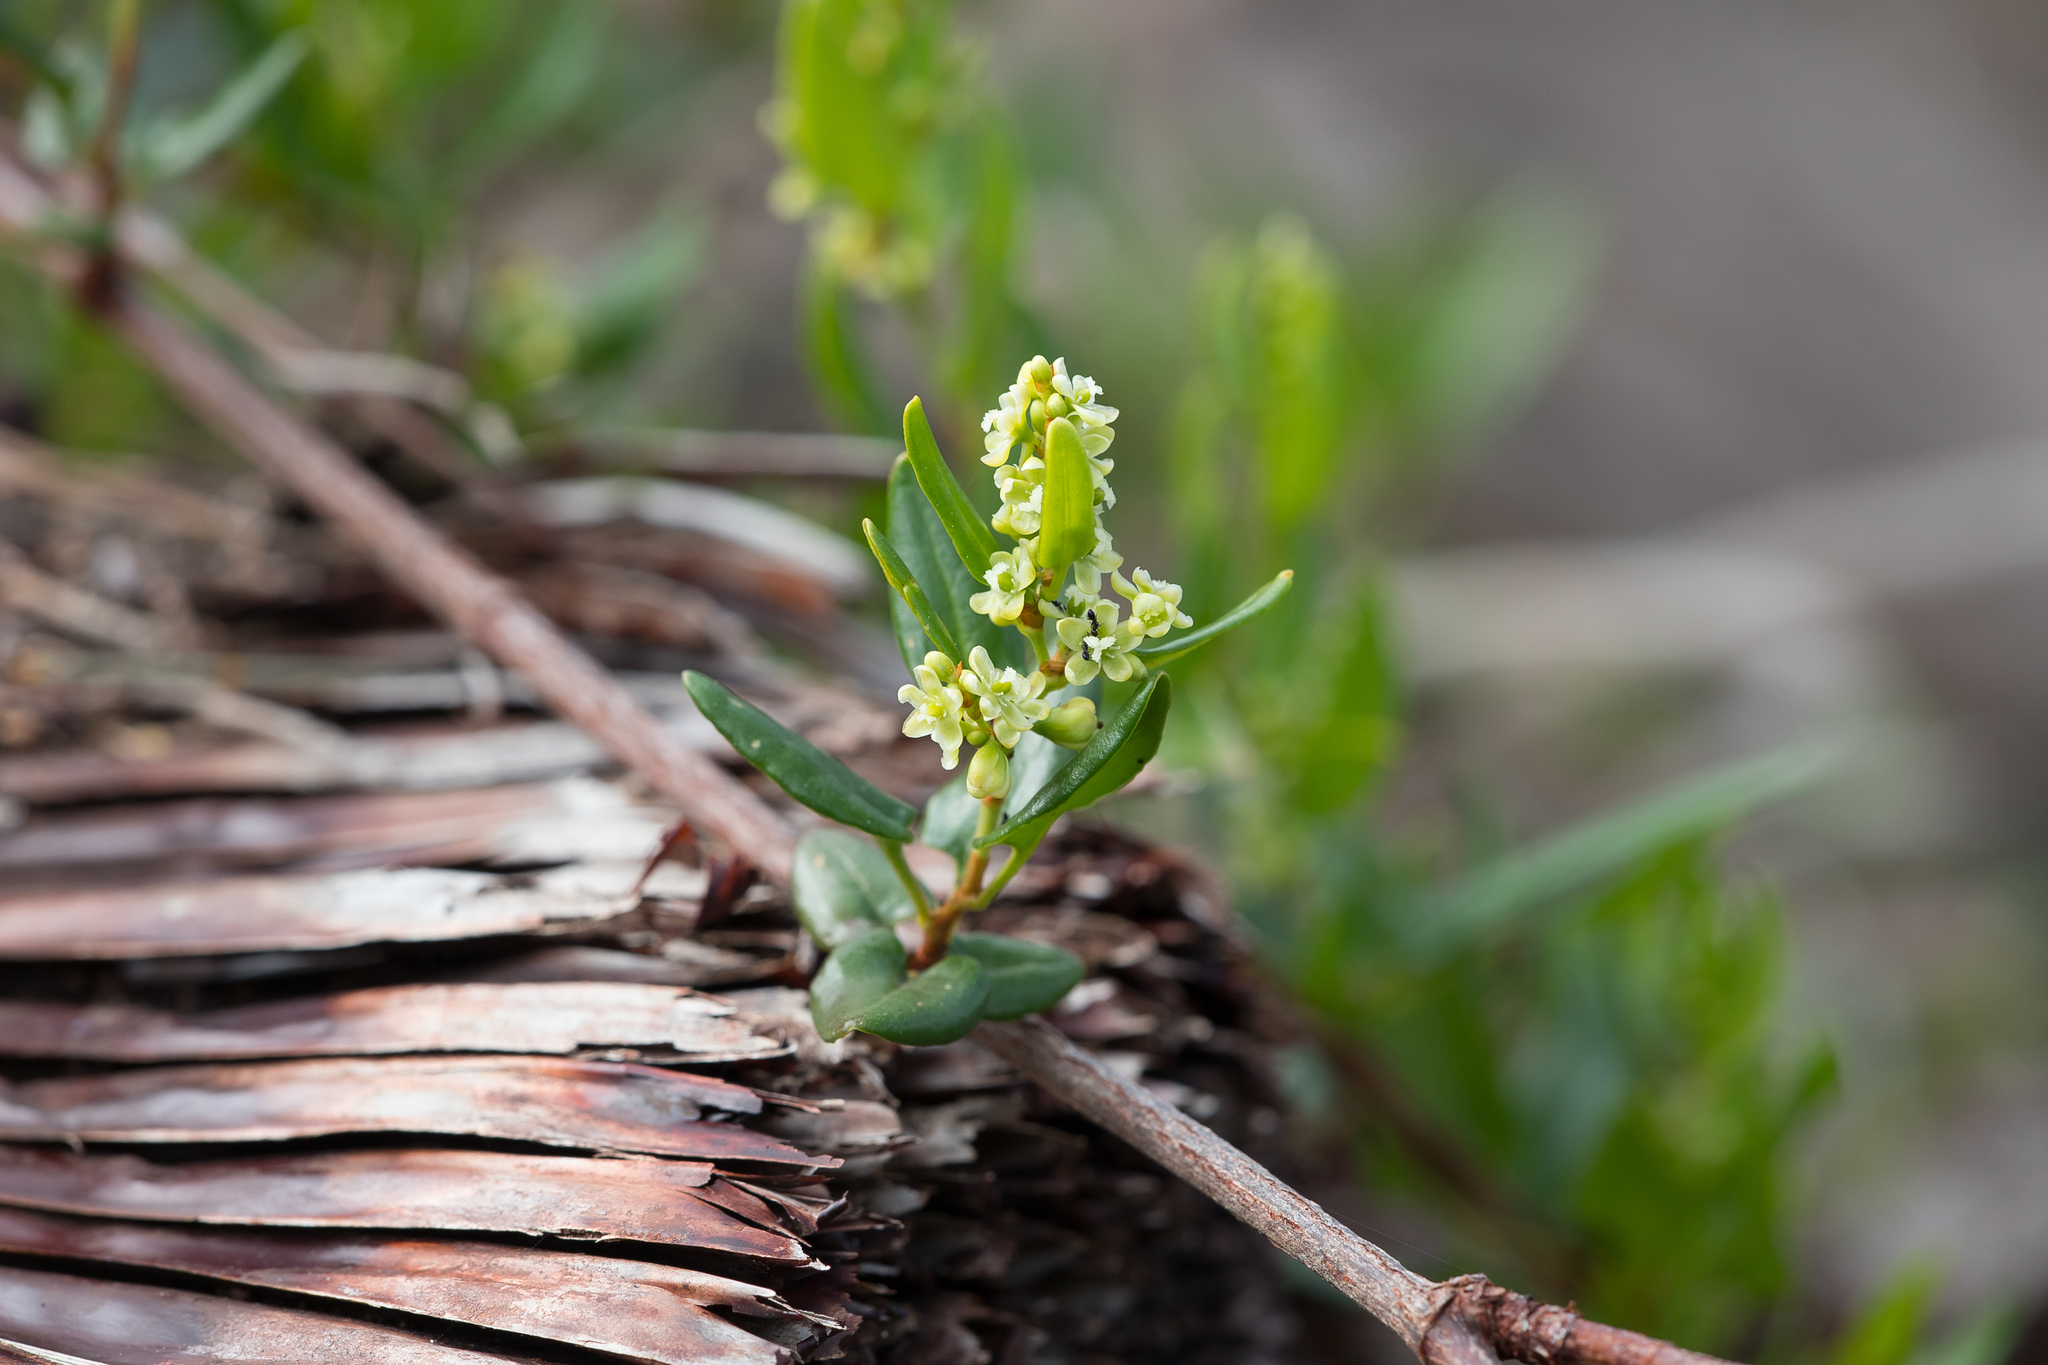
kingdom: Plantae
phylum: Tracheophyta
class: Magnoliopsida
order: Caryophyllales
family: Polygonaceae
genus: Muehlenbeckia
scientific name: Muehlenbeckia gunnii
